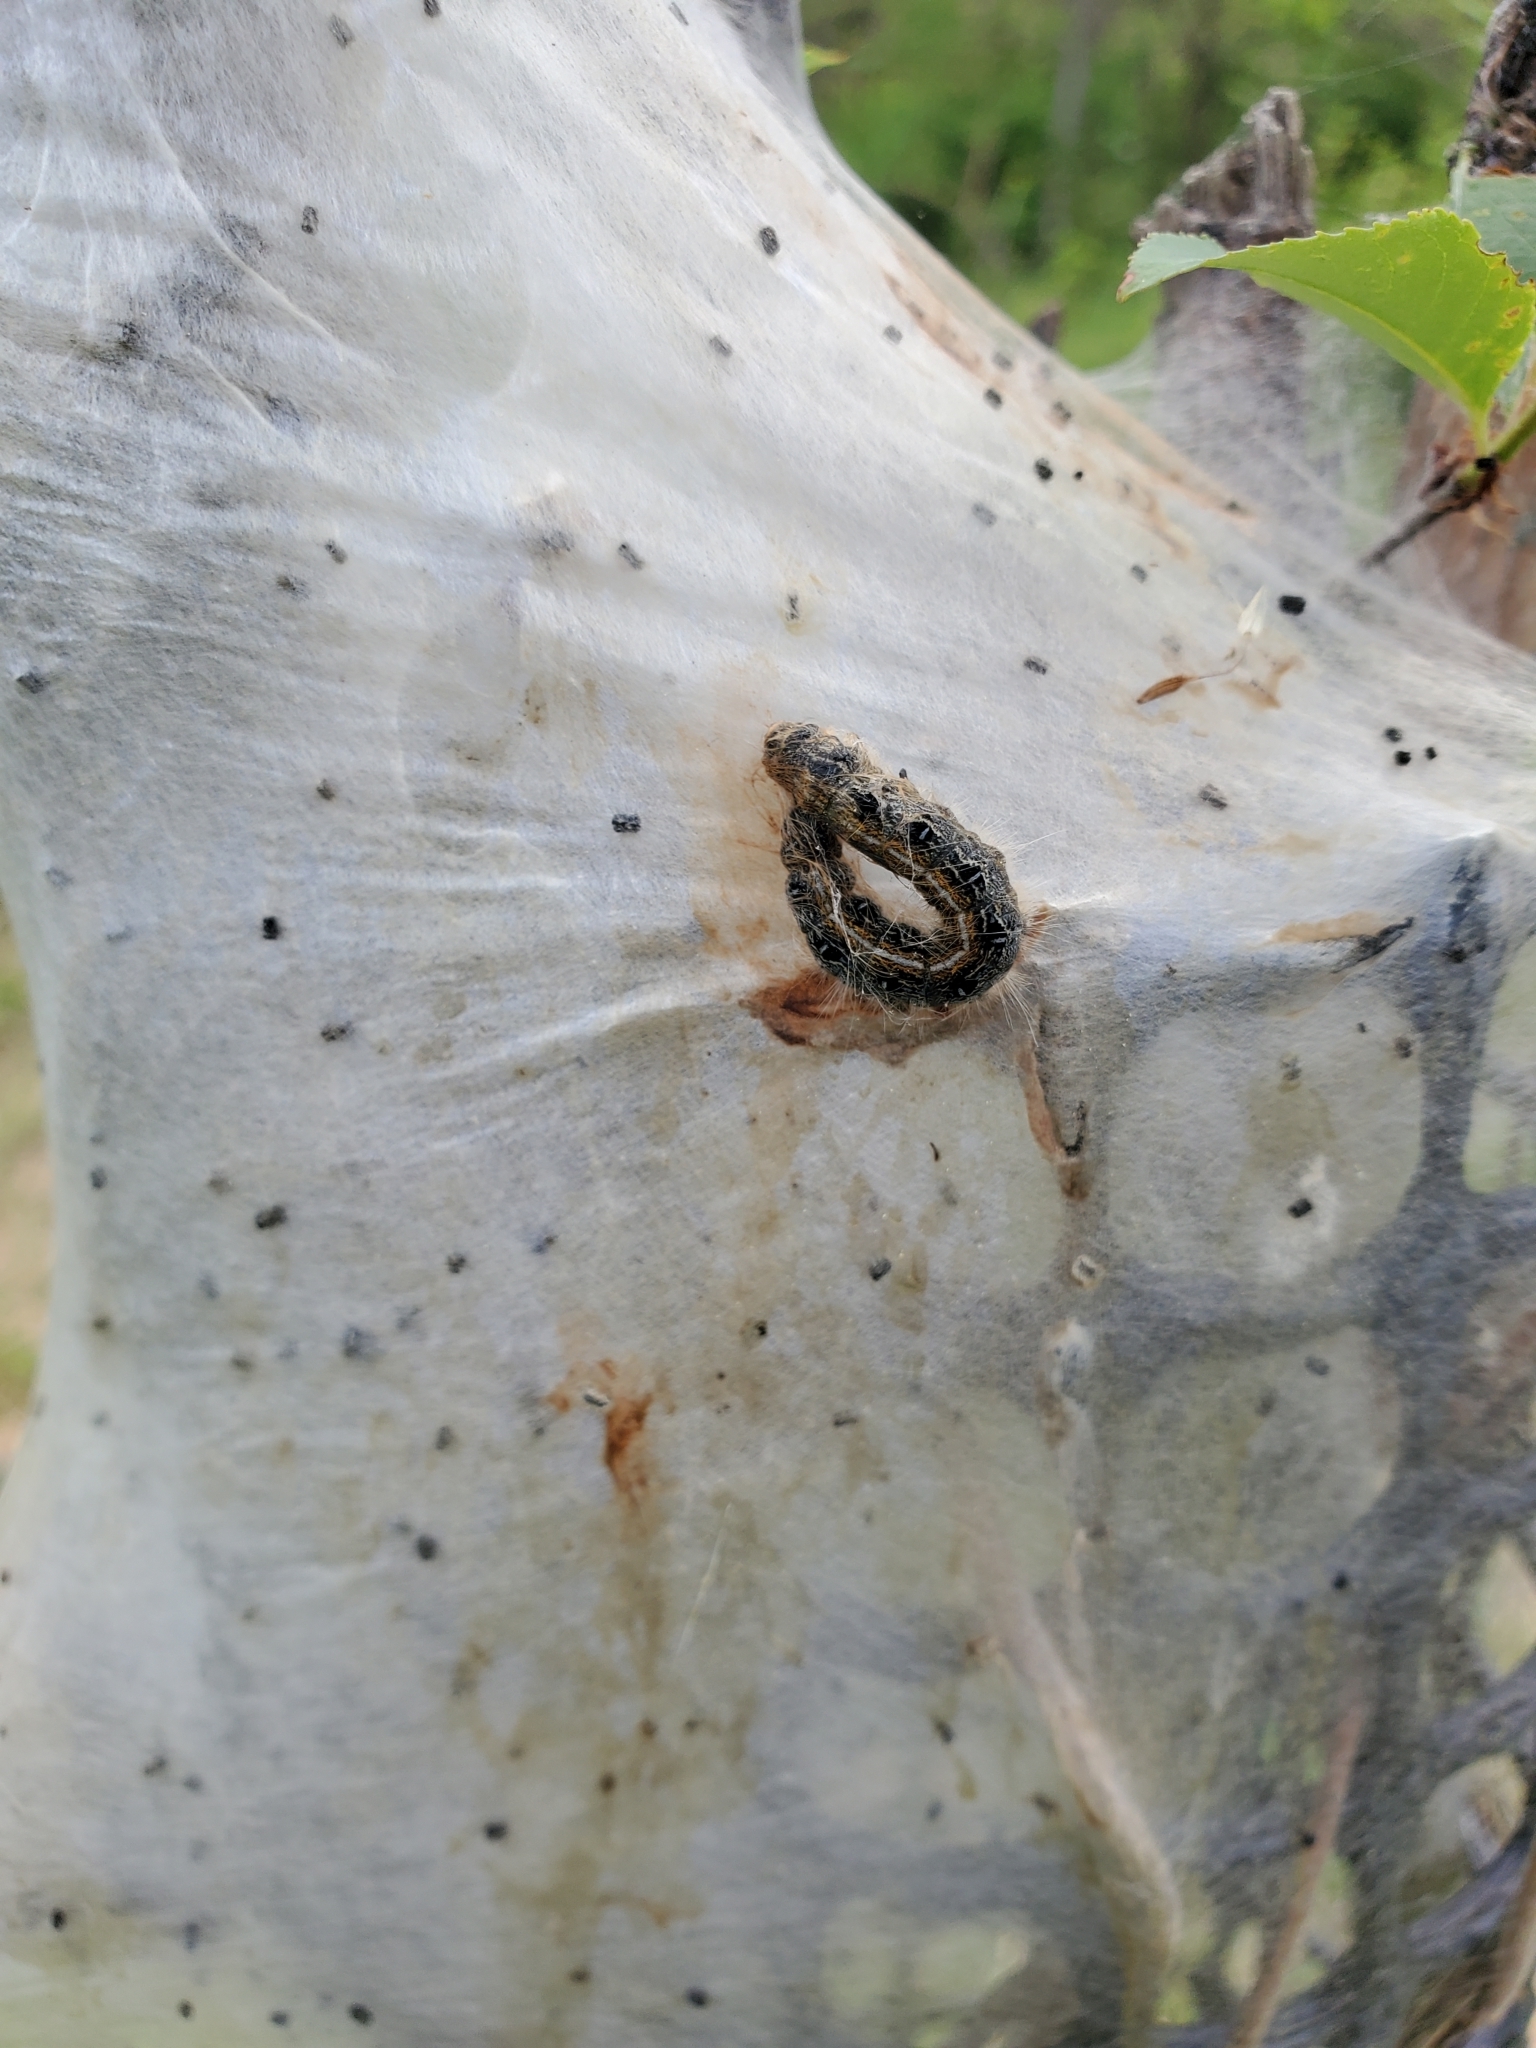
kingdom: Animalia
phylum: Arthropoda
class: Insecta
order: Lepidoptera
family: Lasiocampidae
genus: Malacosoma
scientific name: Malacosoma americana
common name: Eastern tent caterpillar moth
